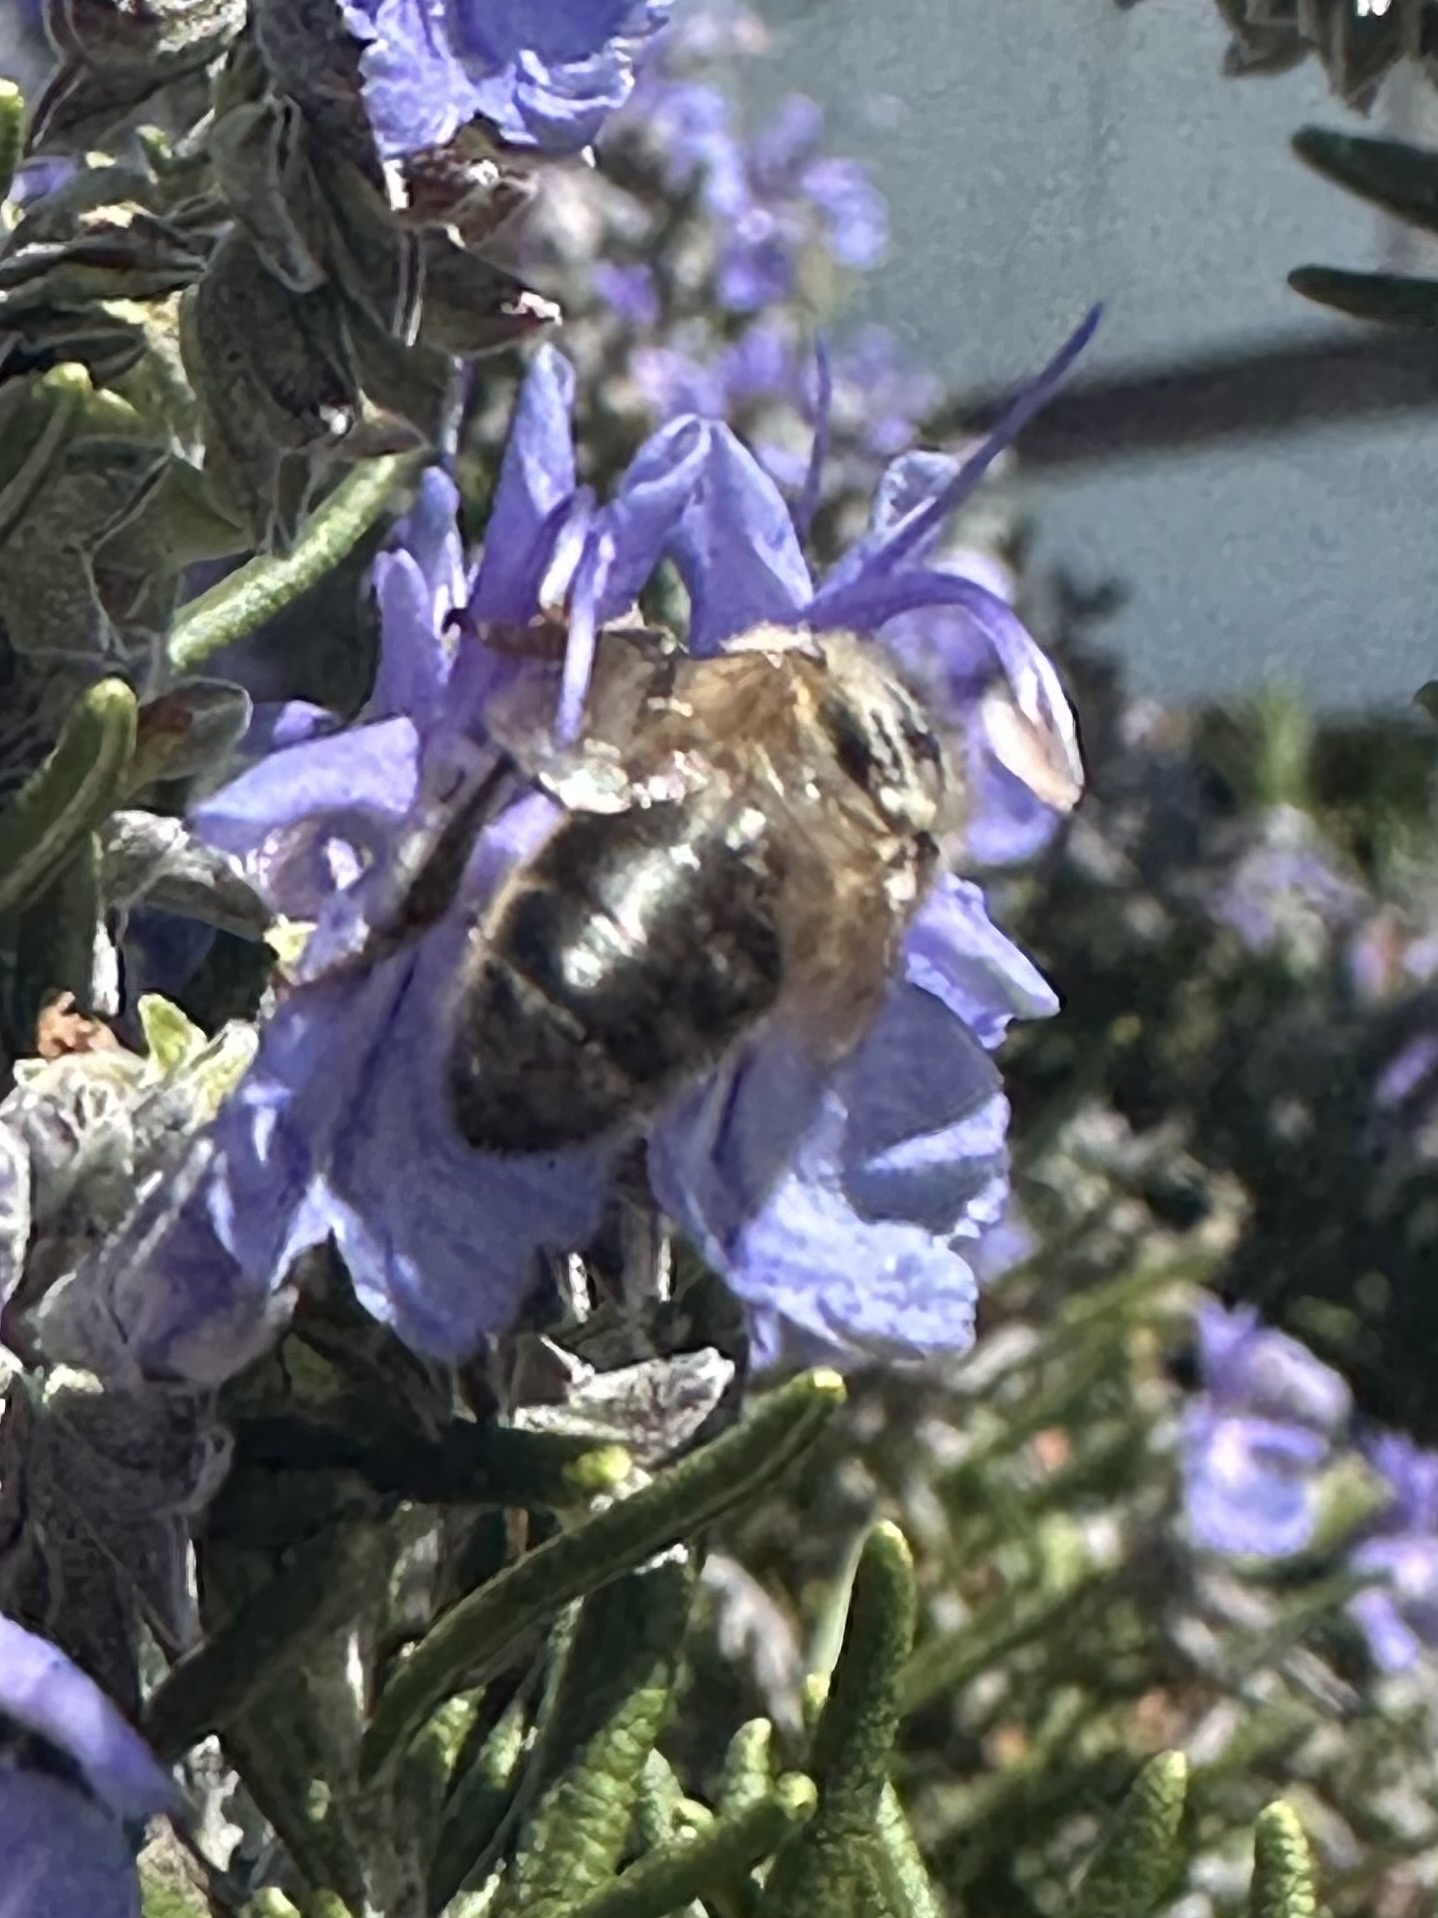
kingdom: Animalia
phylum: Arthropoda
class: Insecta
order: Hymenoptera
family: Apidae
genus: Apis
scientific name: Apis mellifera
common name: Honey bee
